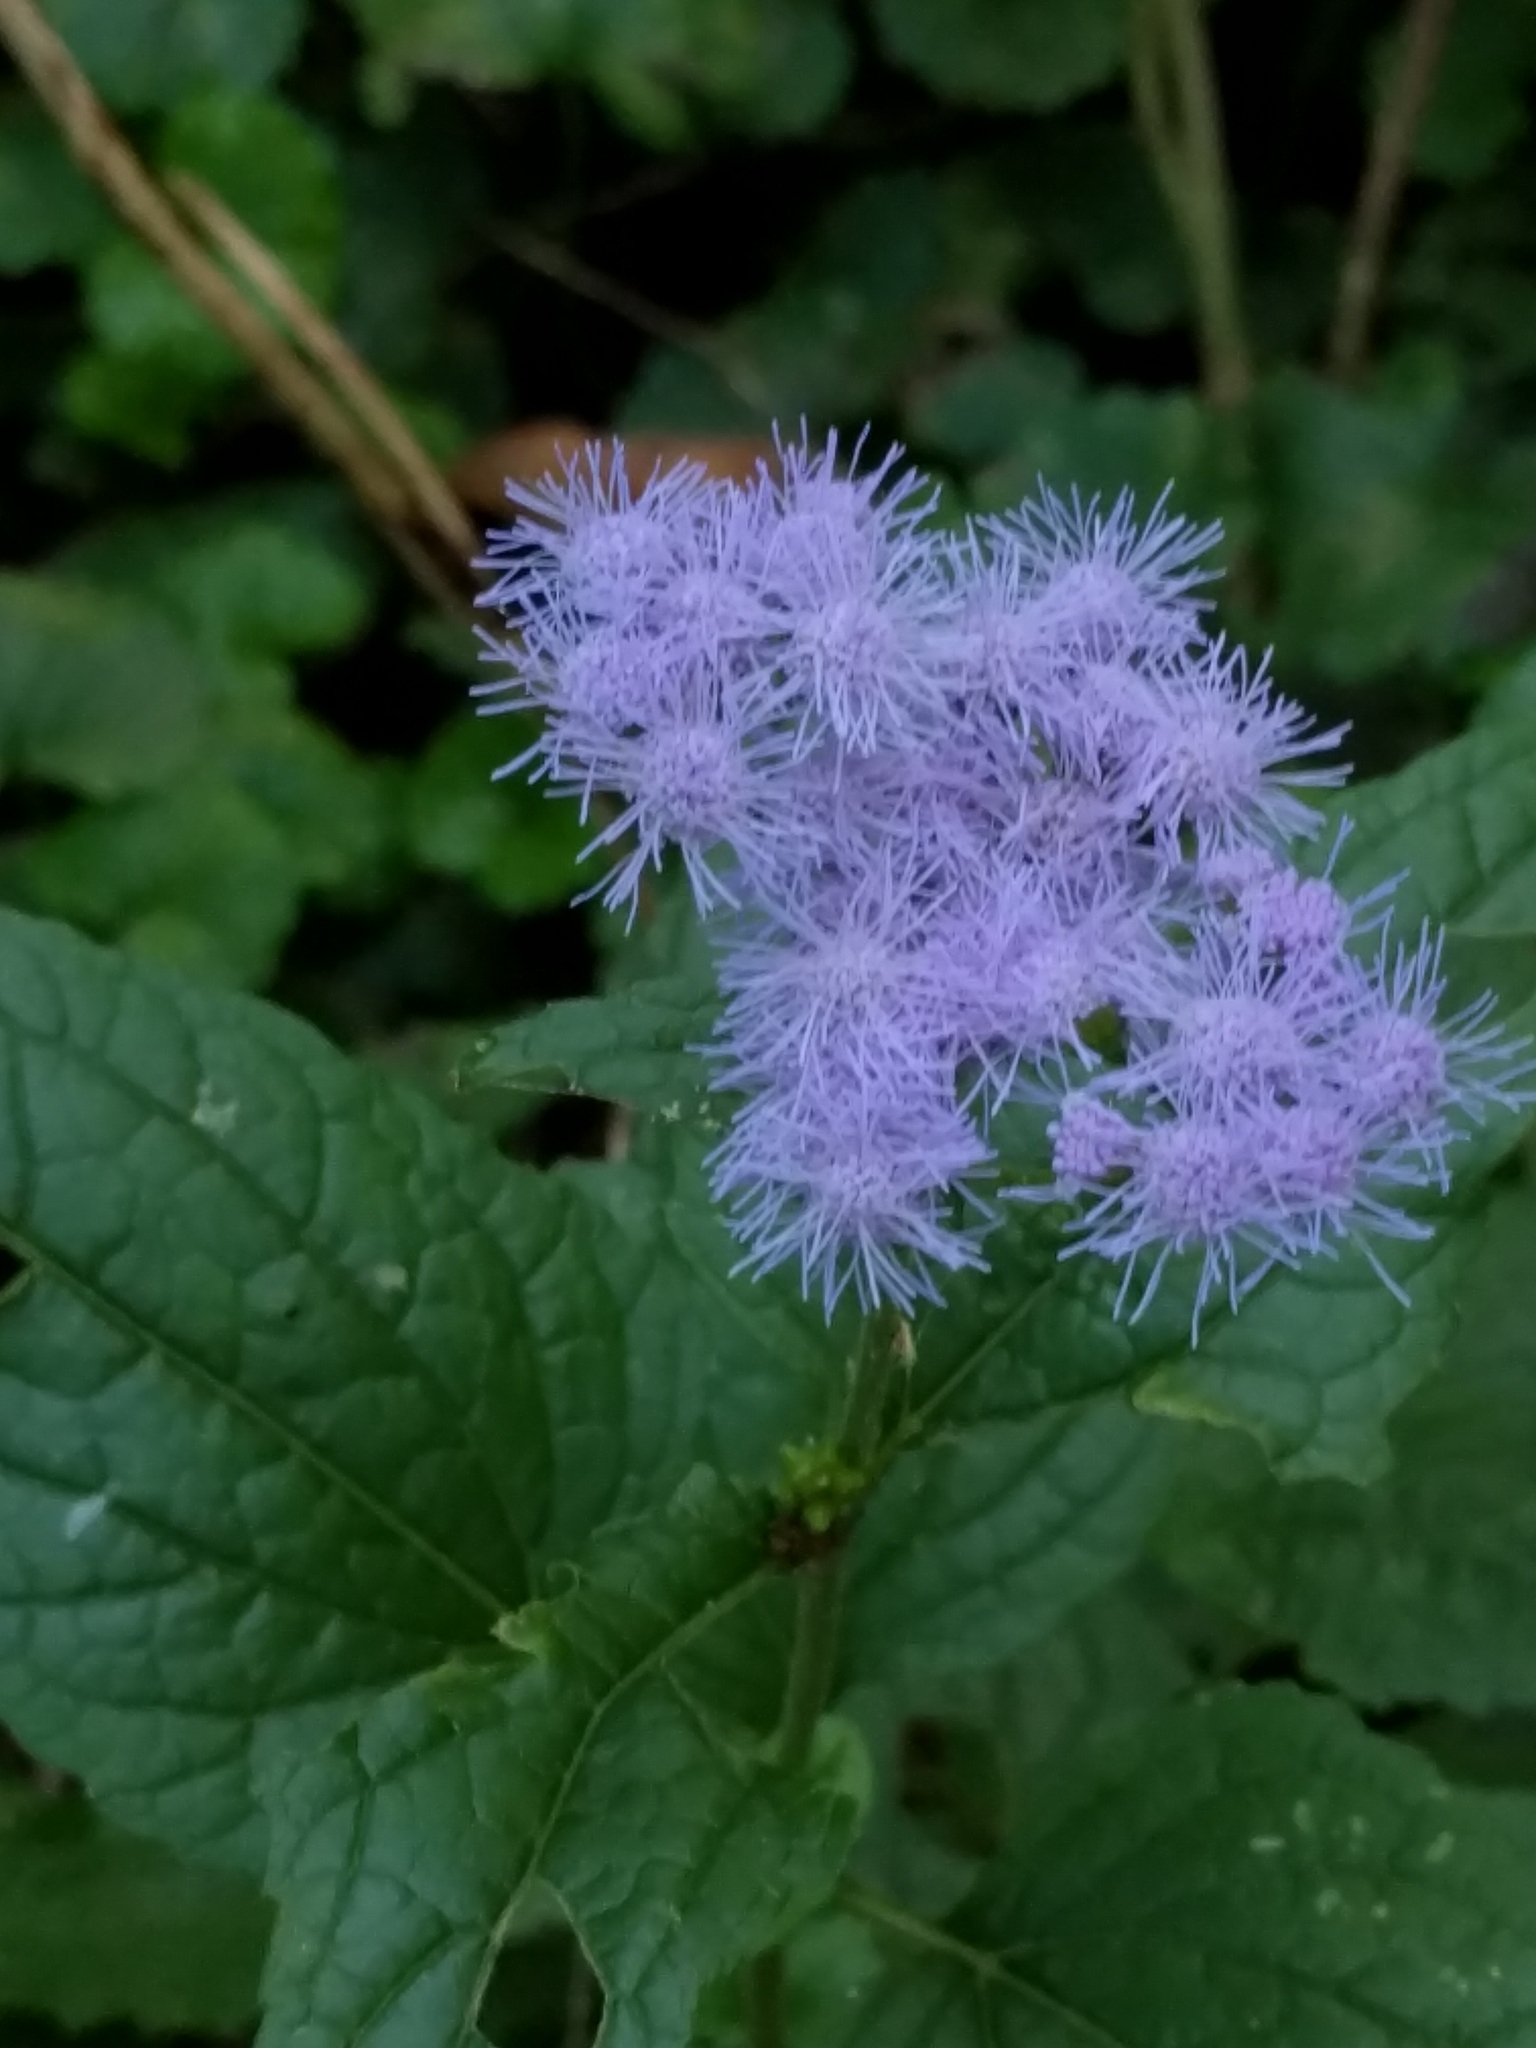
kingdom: Plantae
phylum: Tracheophyta
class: Magnoliopsida
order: Asterales
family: Asteraceae
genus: Conoclinium
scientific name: Conoclinium coelestinum
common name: Blue mistflower
